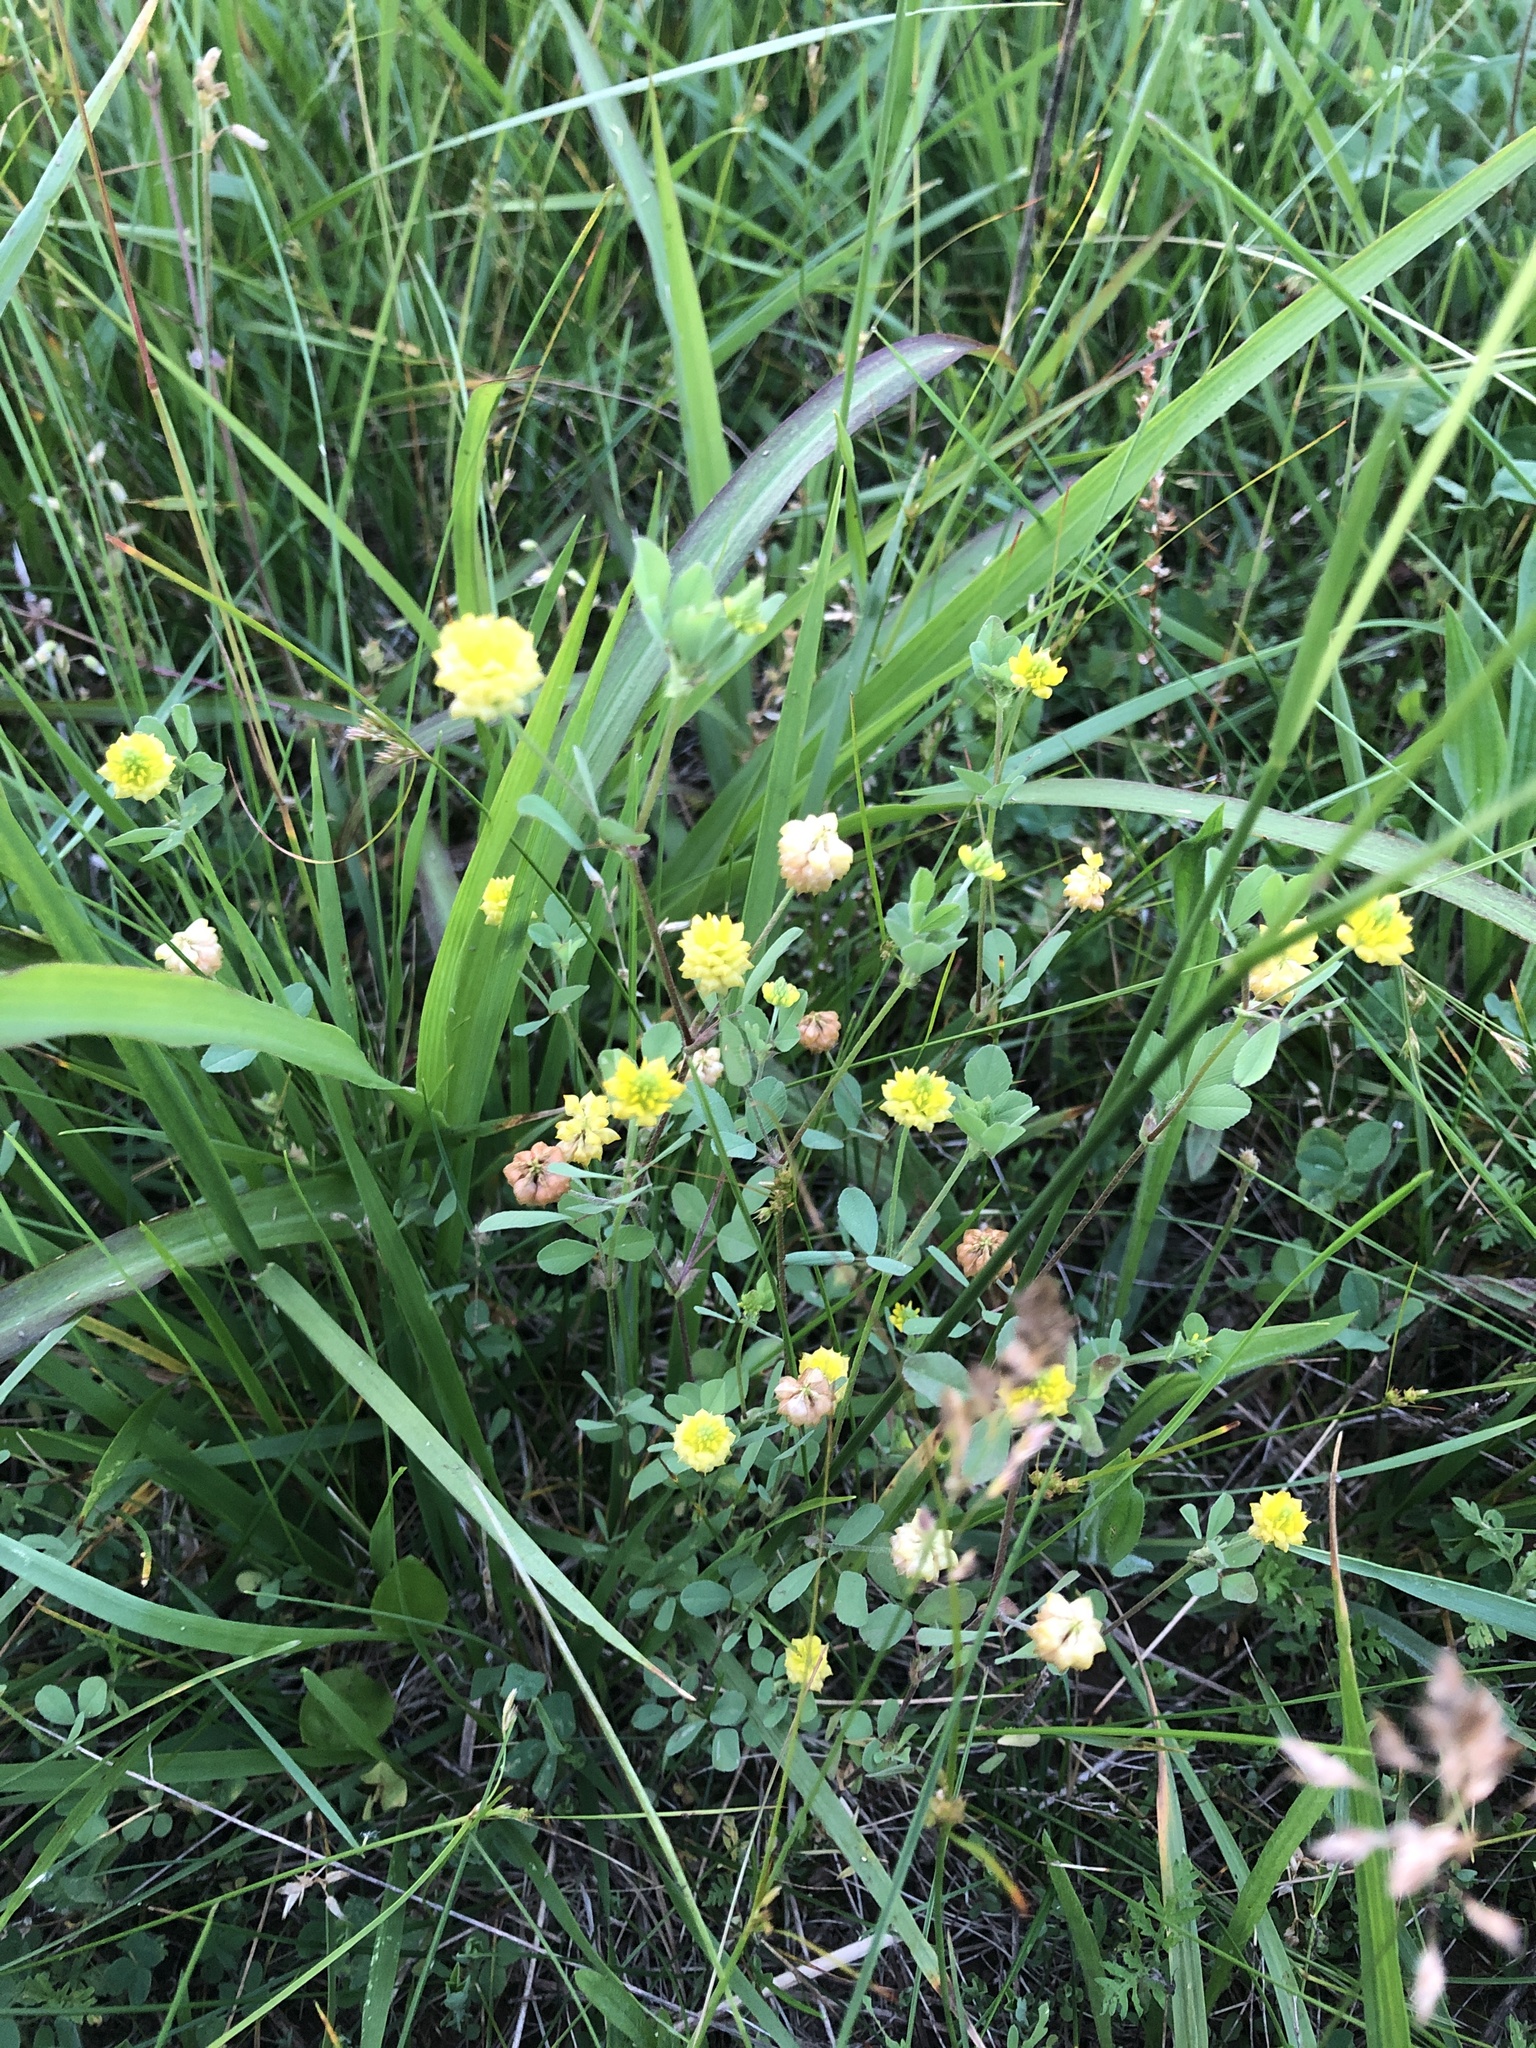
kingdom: Plantae
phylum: Tracheophyta
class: Magnoliopsida
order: Fabales
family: Fabaceae
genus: Trifolium
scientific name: Trifolium campestre
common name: Field clover
